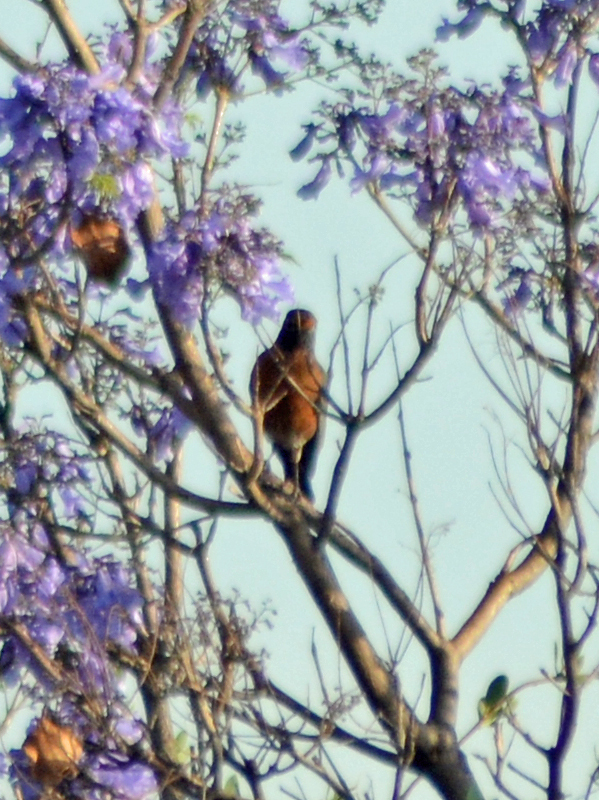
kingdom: Animalia
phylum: Chordata
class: Aves
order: Passeriformes
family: Turdidae
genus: Turdus
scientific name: Turdus migratorius
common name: American robin
